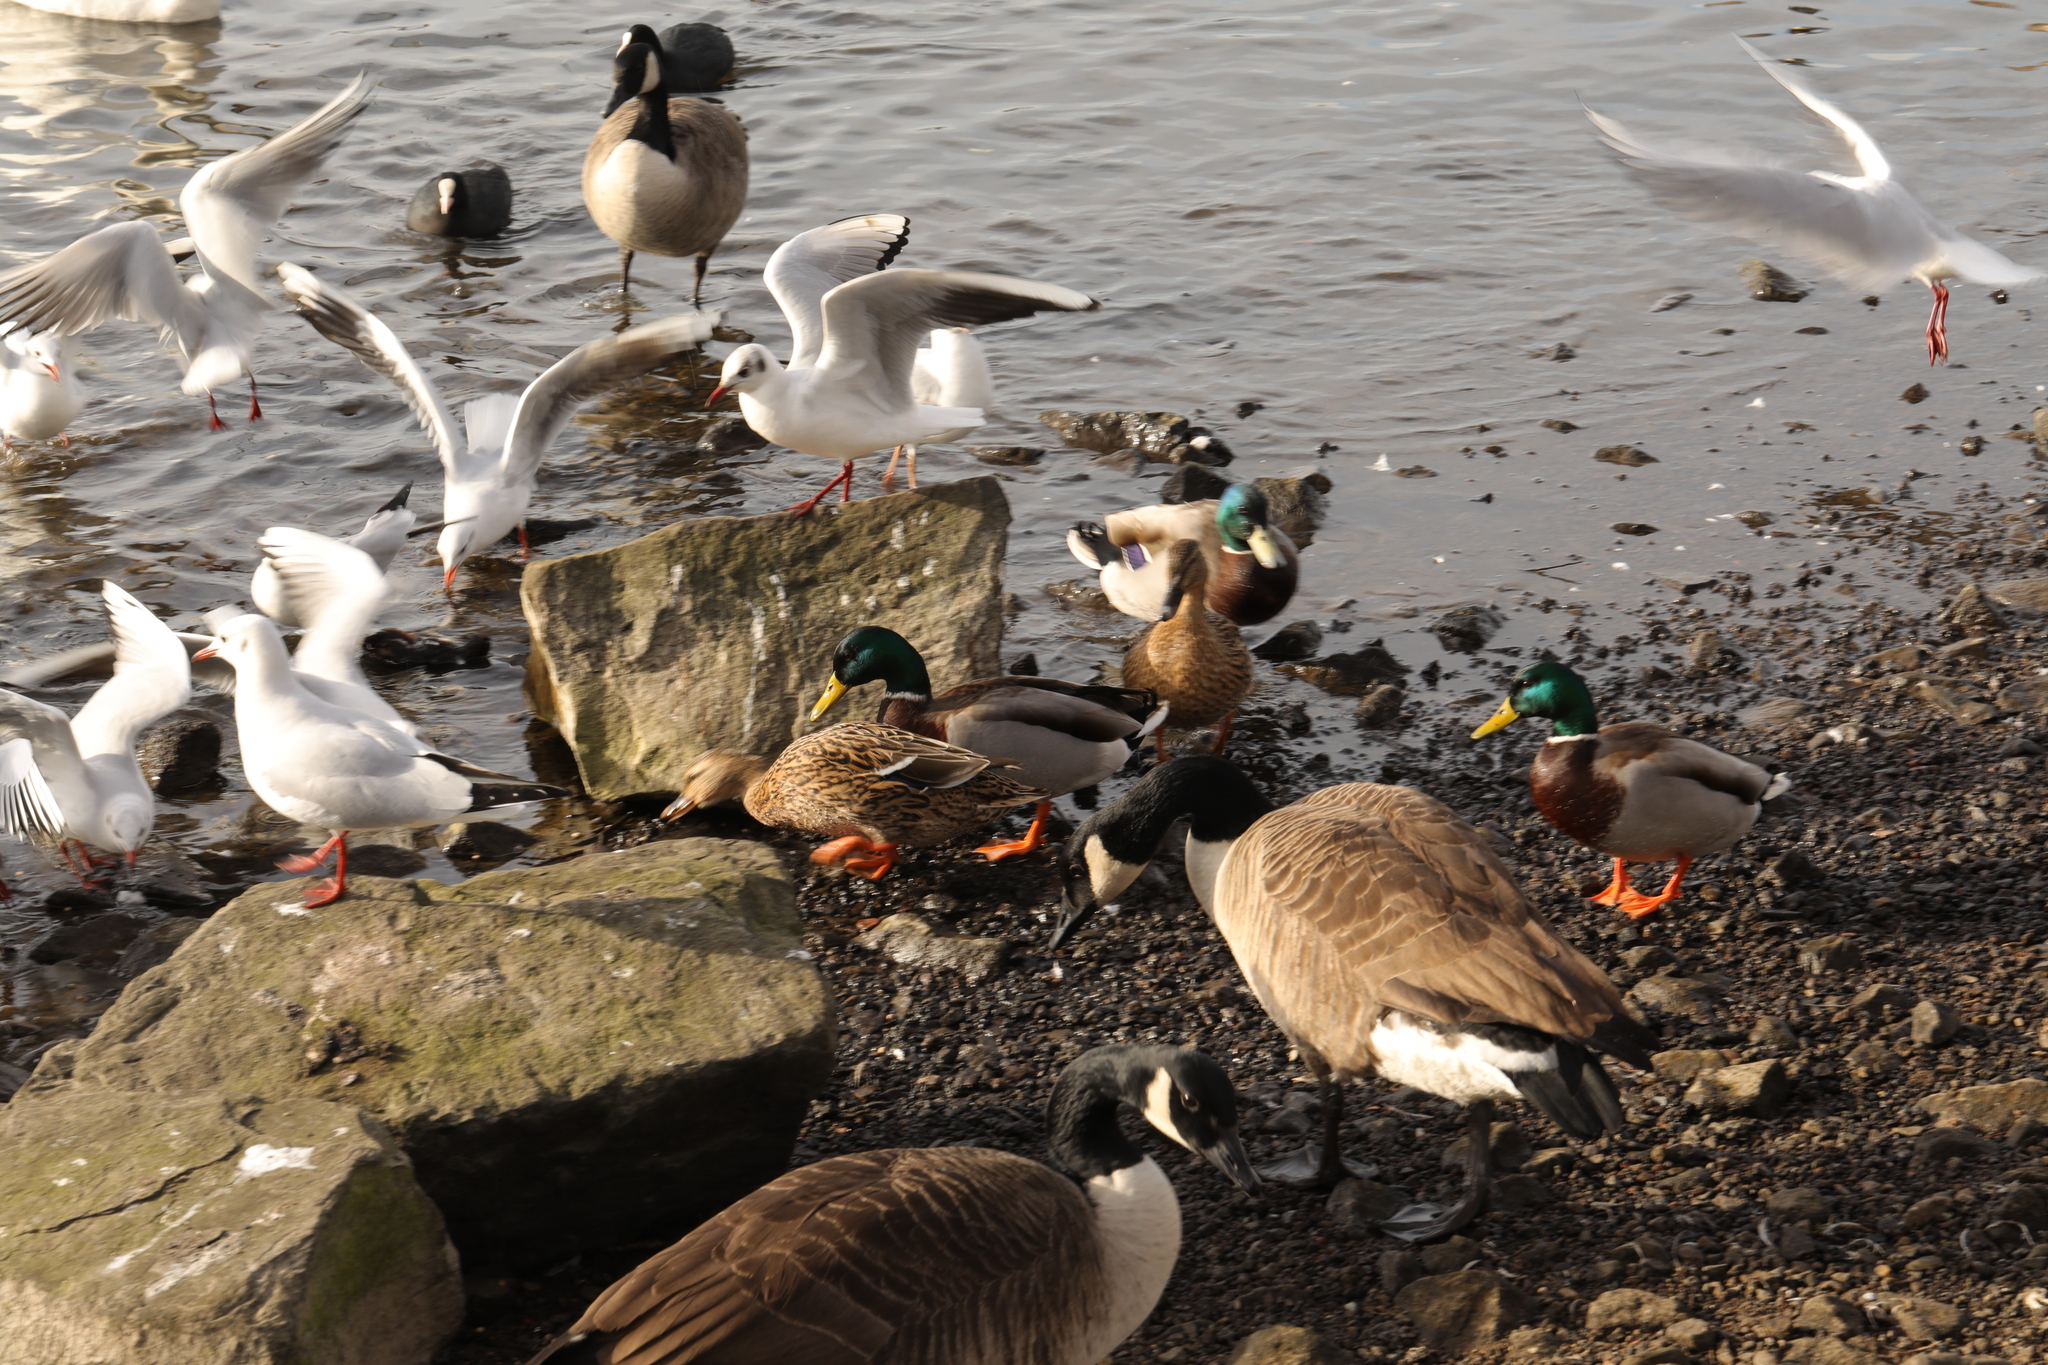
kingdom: Animalia
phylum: Chordata
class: Aves
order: Anseriformes
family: Anatidae
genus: Anas
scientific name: Anas platyrhynchos
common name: Mallard
